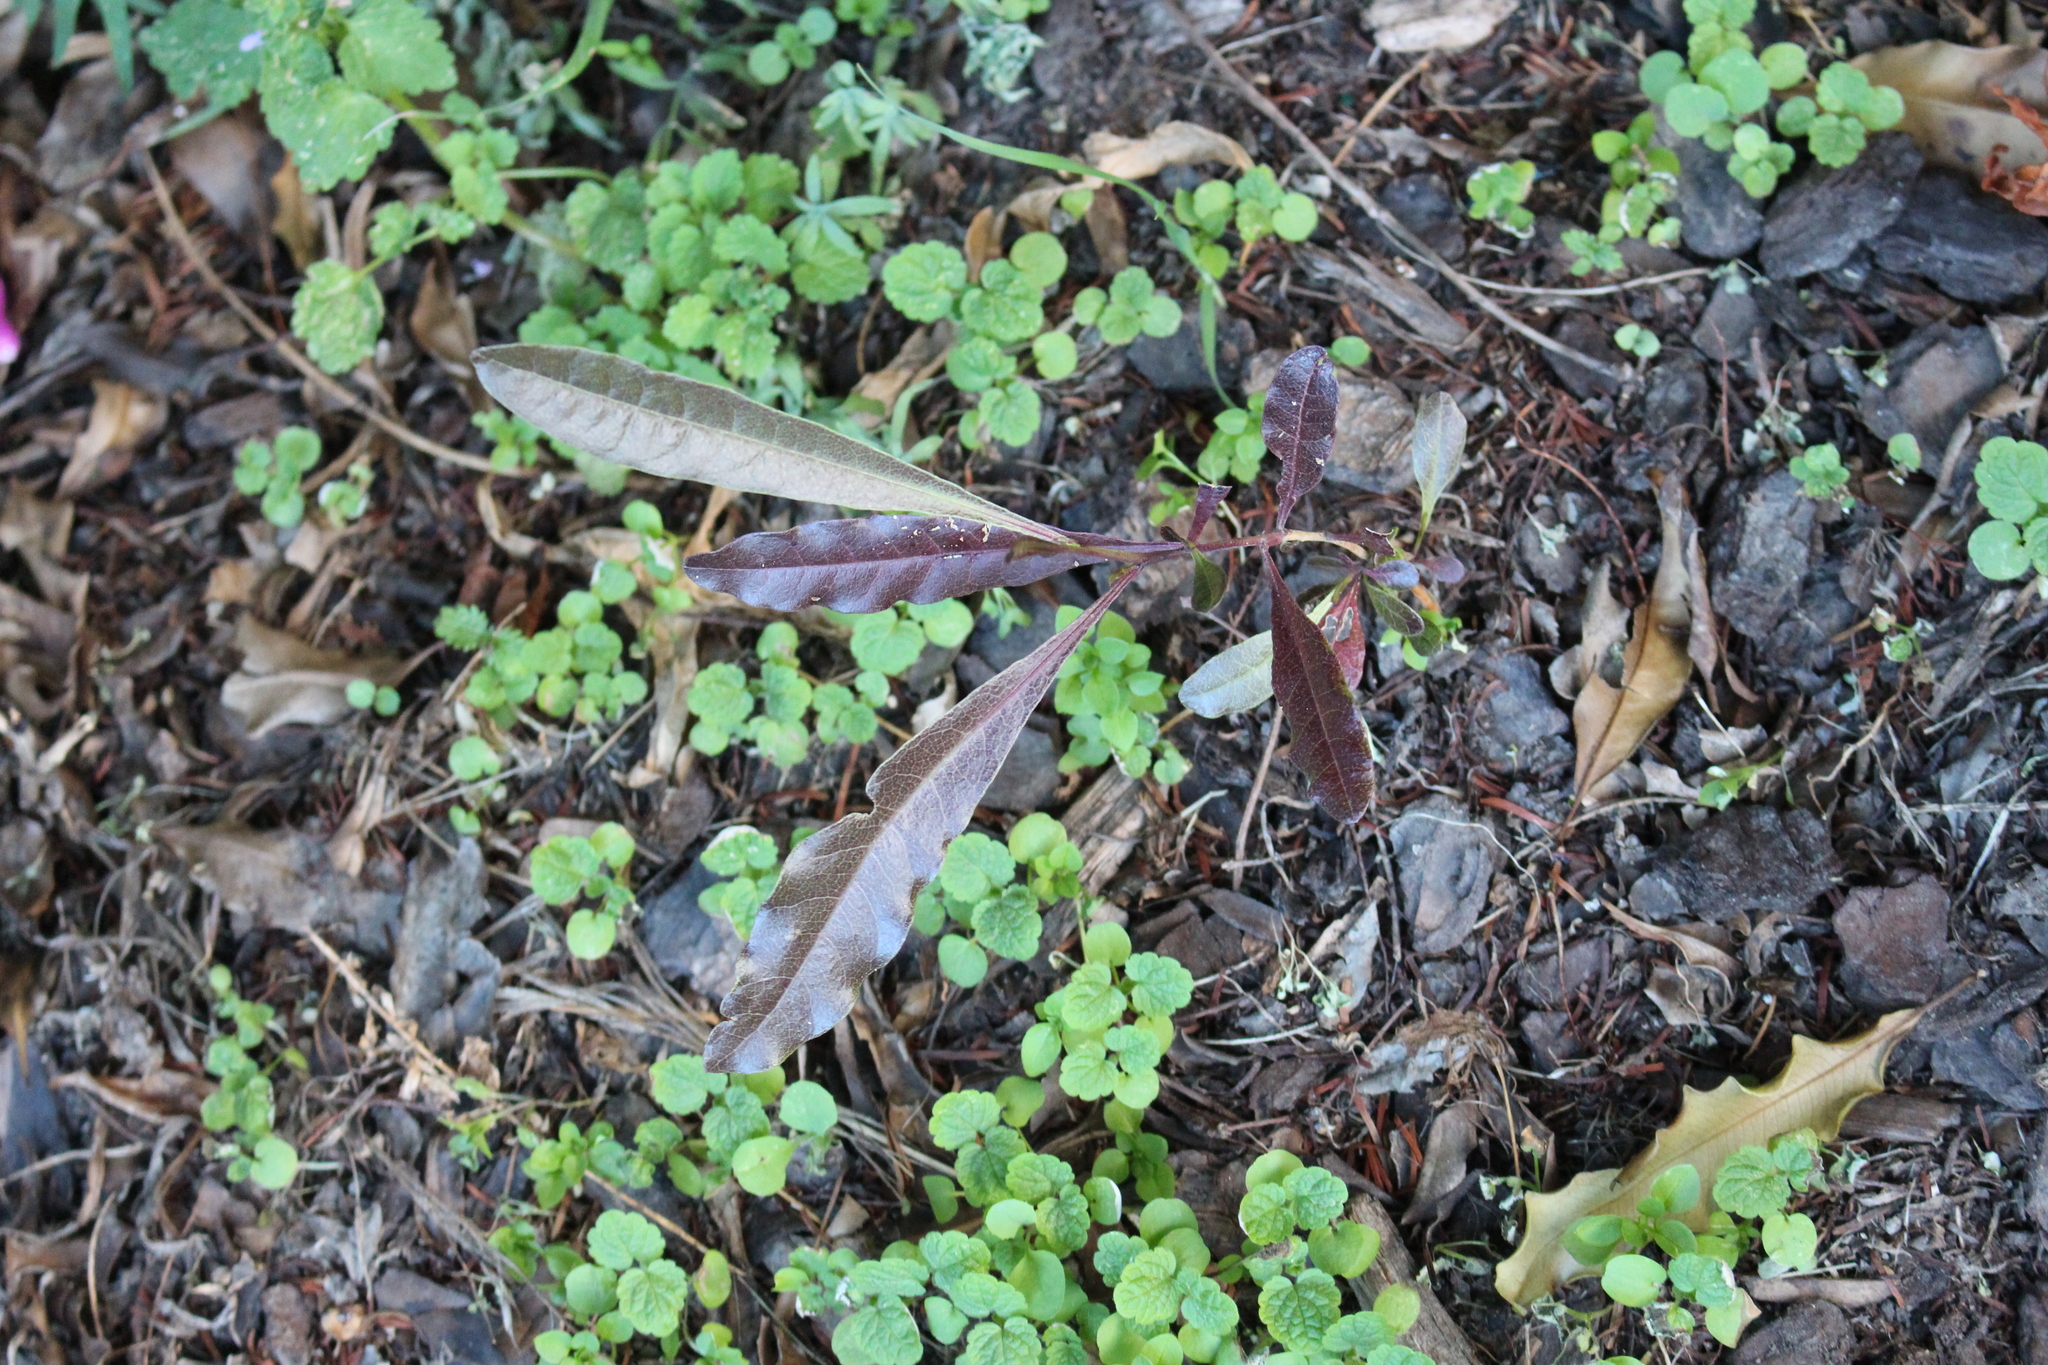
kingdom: Plantae
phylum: Tracheophyta
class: Magnoliopsida
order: Sapindales
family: Sapindaceae
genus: Dodonaea
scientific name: Dodonaea viscosa
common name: Hopbush
